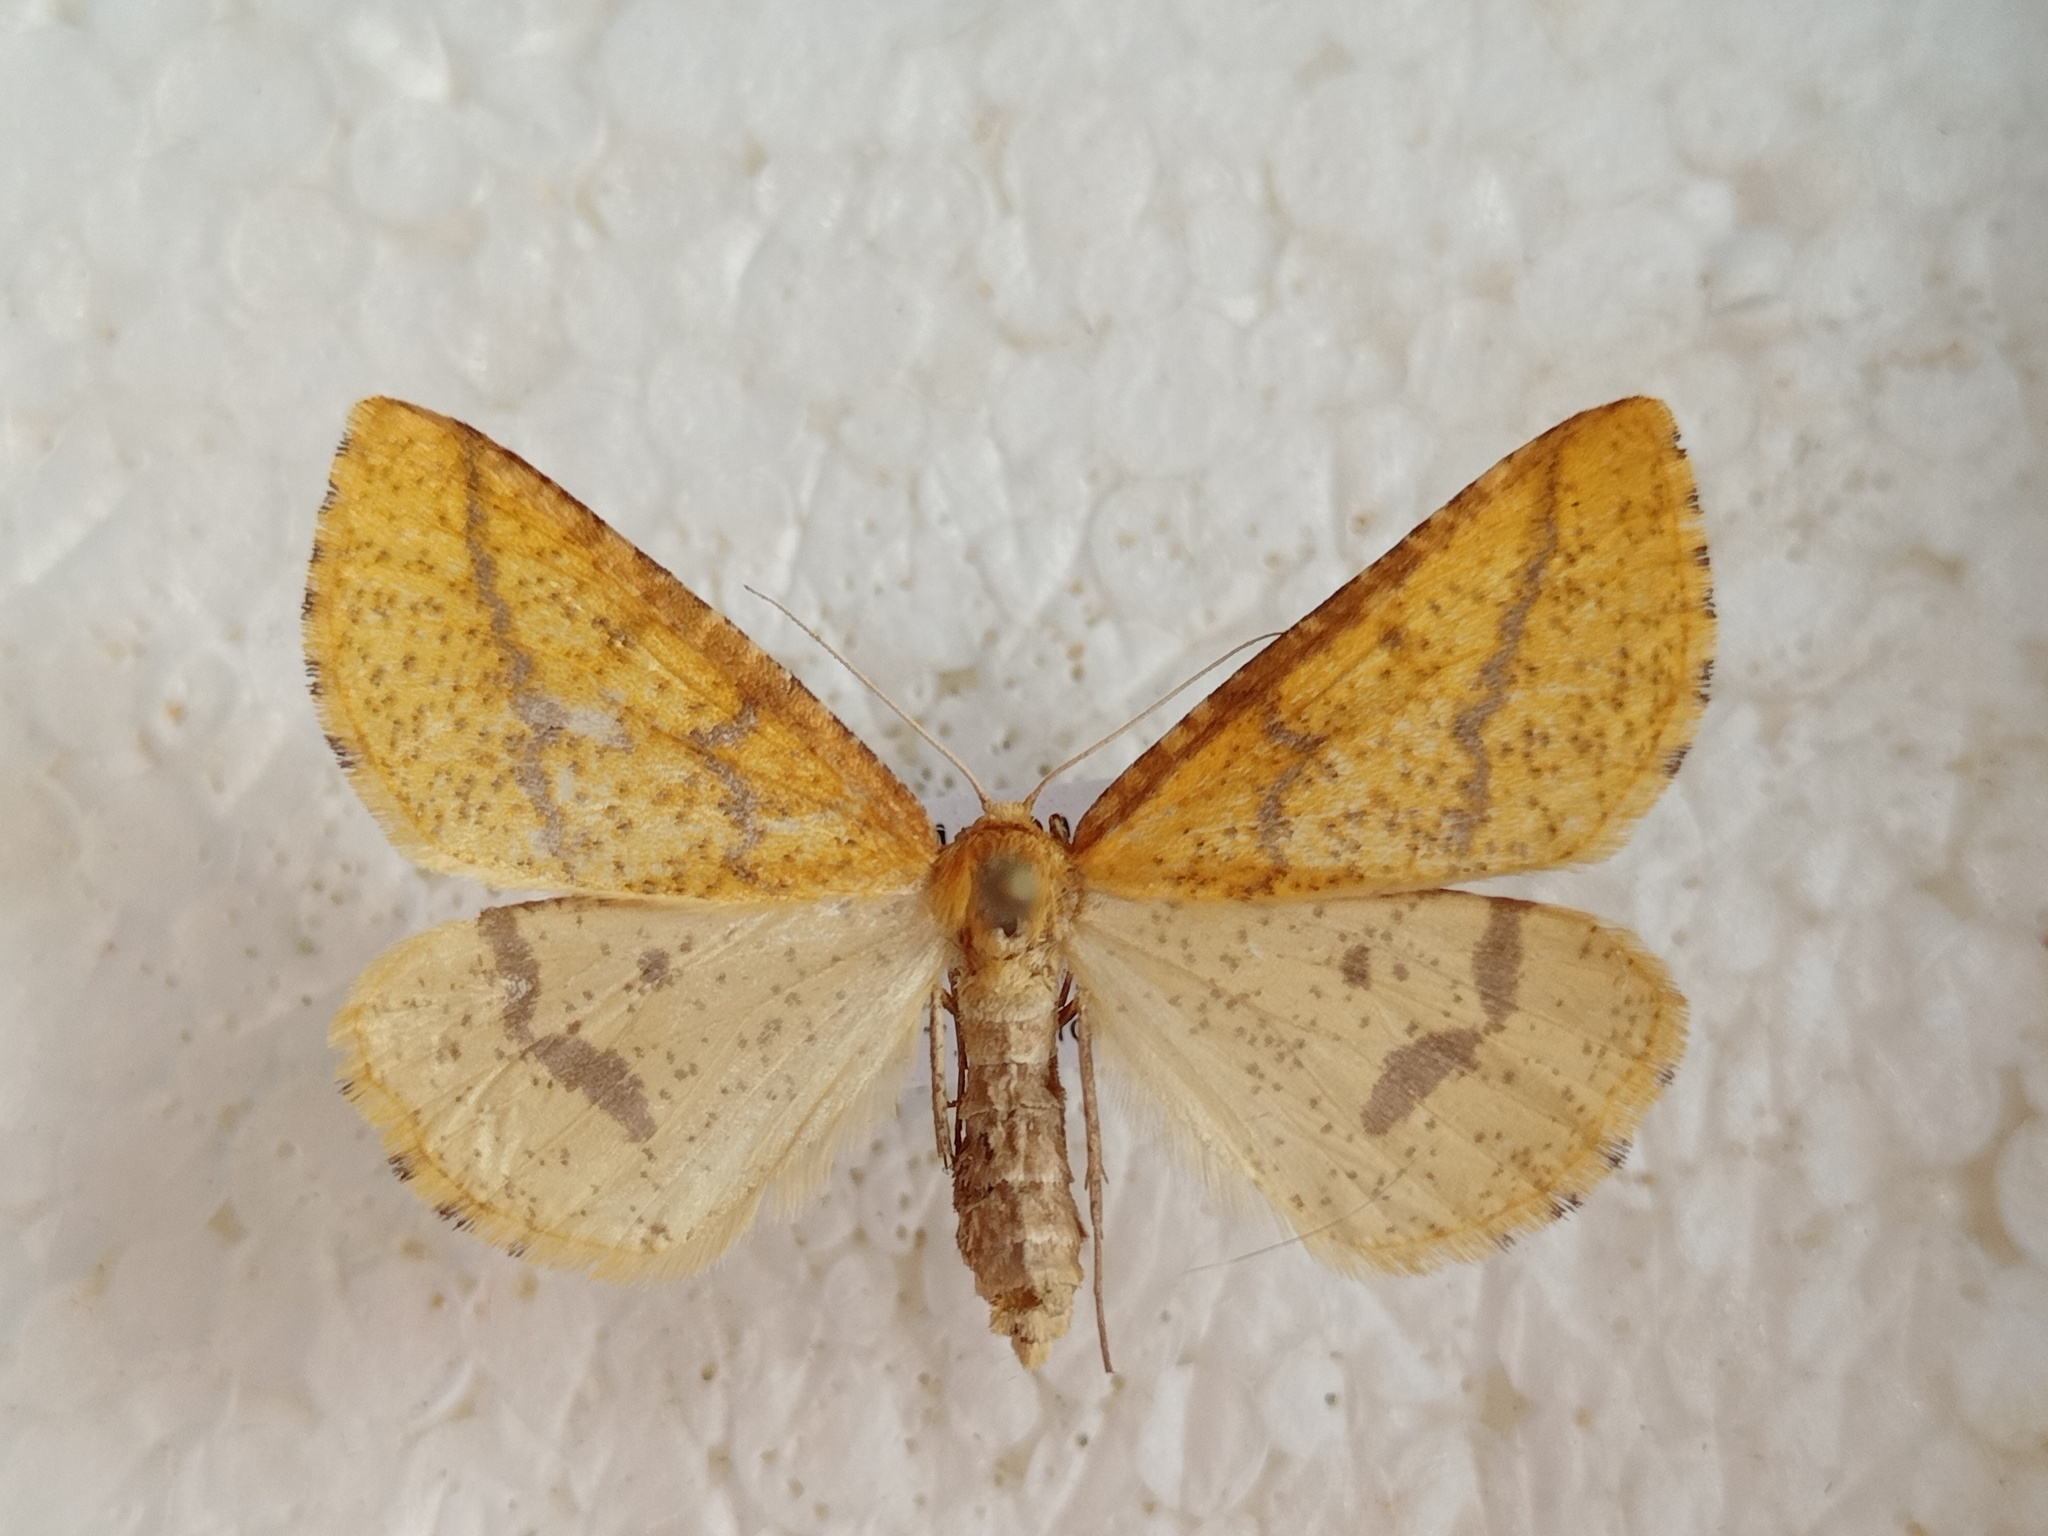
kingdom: Animalia
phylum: Arthropoda
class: Insecta
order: Lepidoptera
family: Geometridae
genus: Aspitates
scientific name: Aspitates ochrearia
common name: Yellow belle
